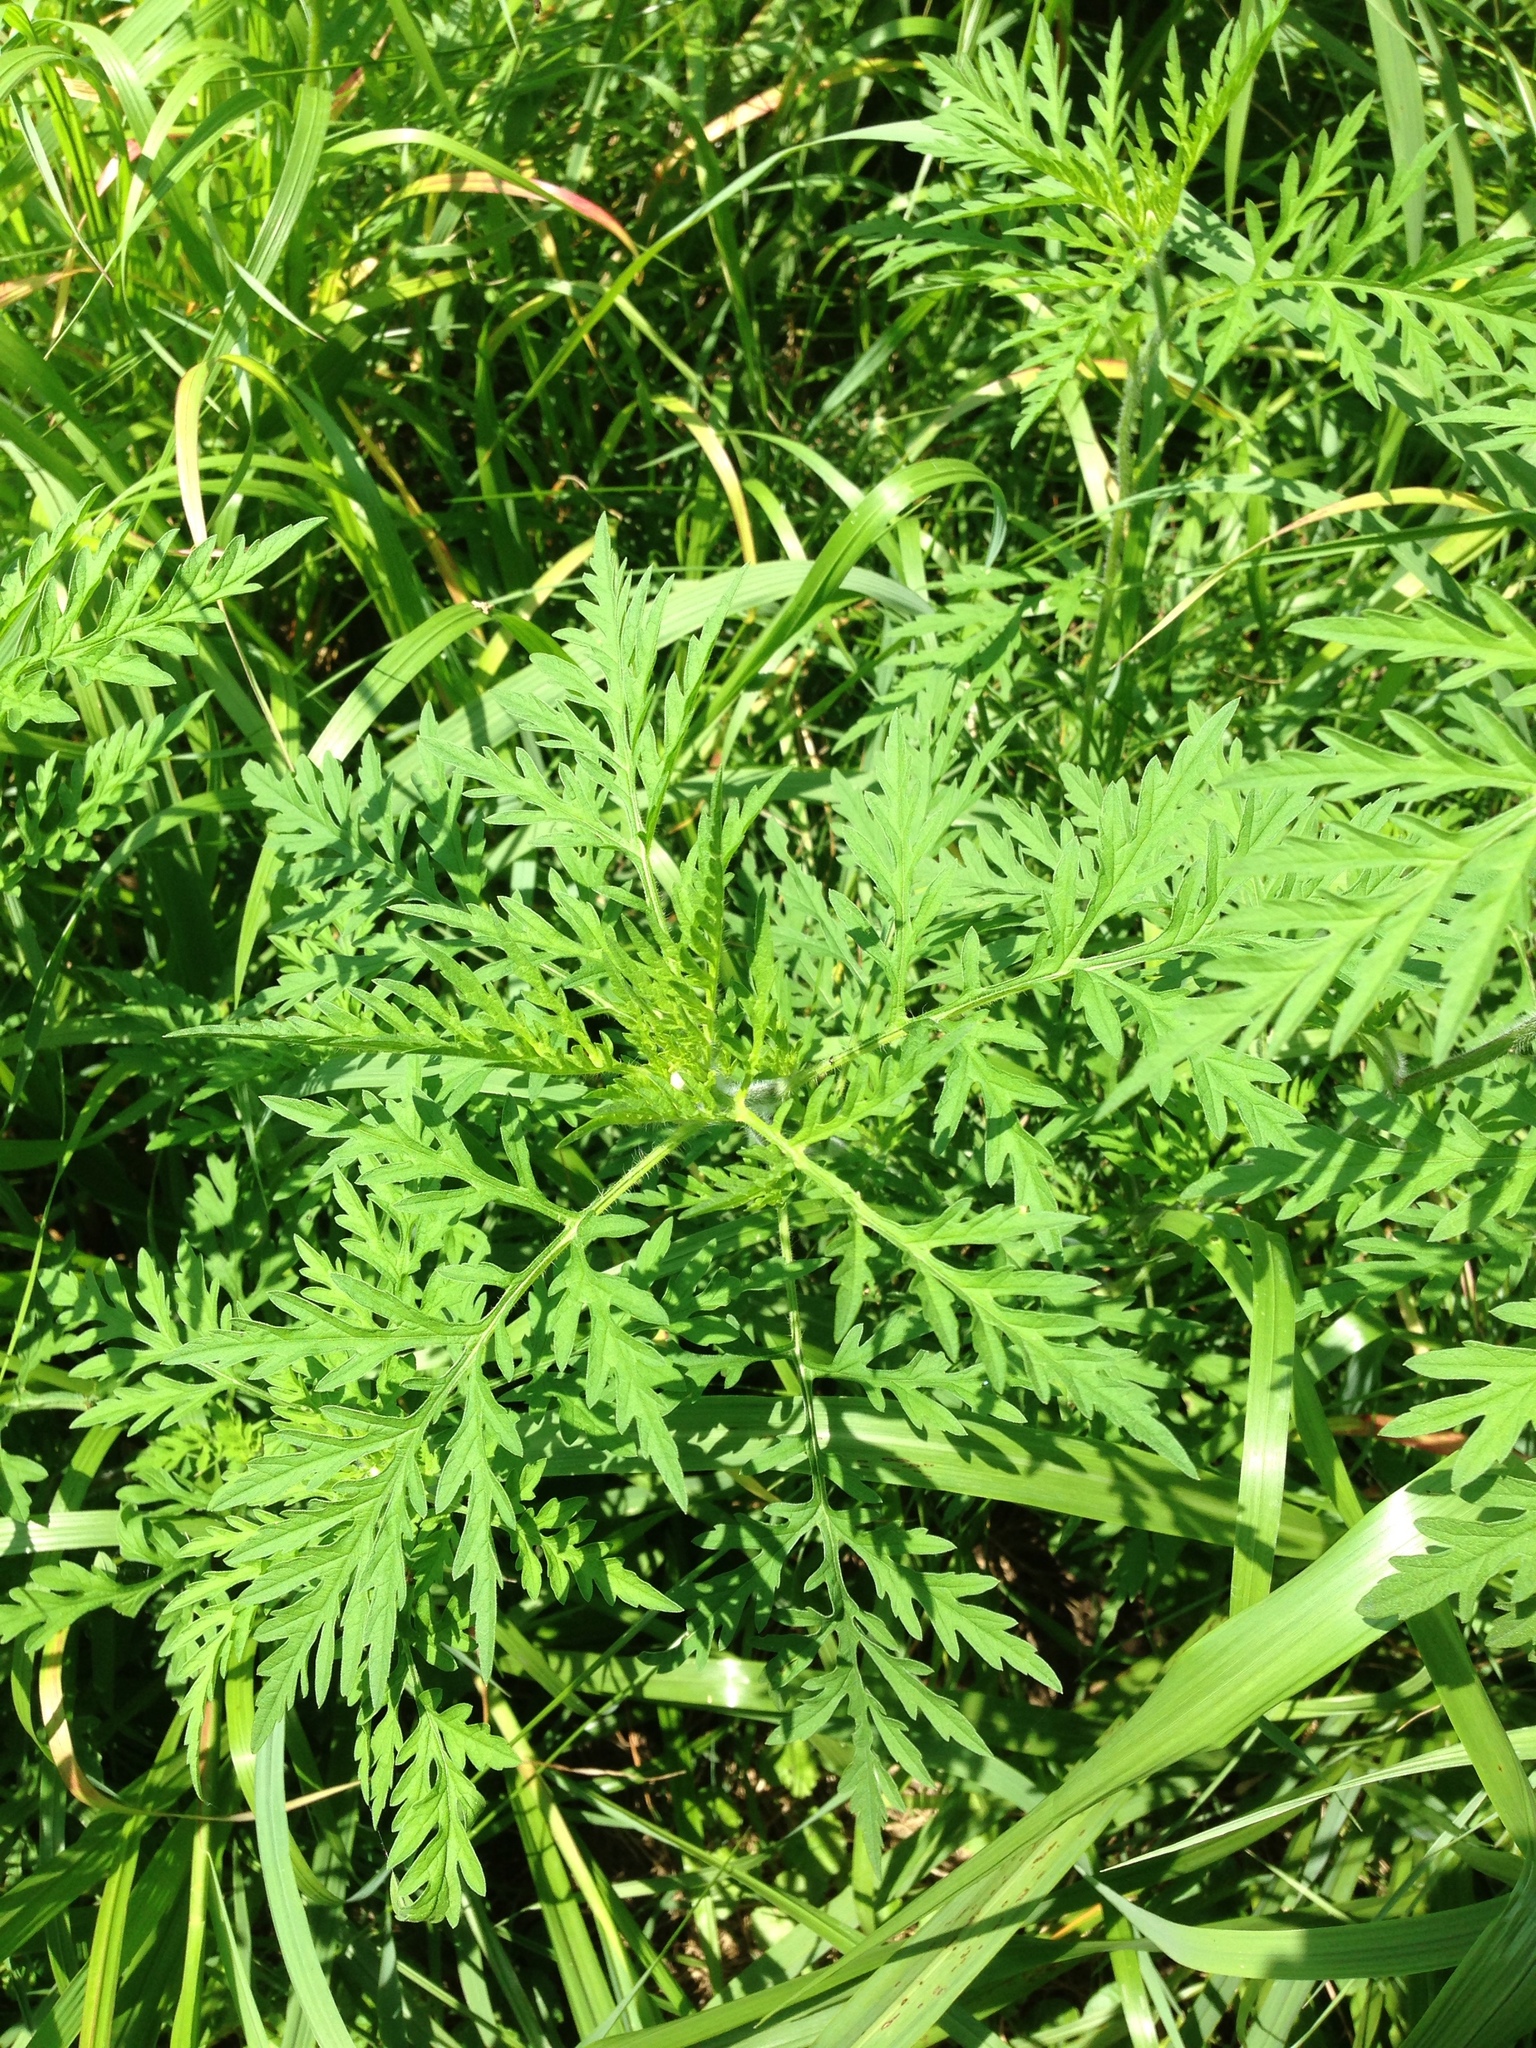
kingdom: Plantae
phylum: Tracheophyta
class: Magnoliopsida
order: Asterales
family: Asteraceae
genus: Ambrosia
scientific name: Ambrosia artemisiifolia
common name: Annual ragweed
